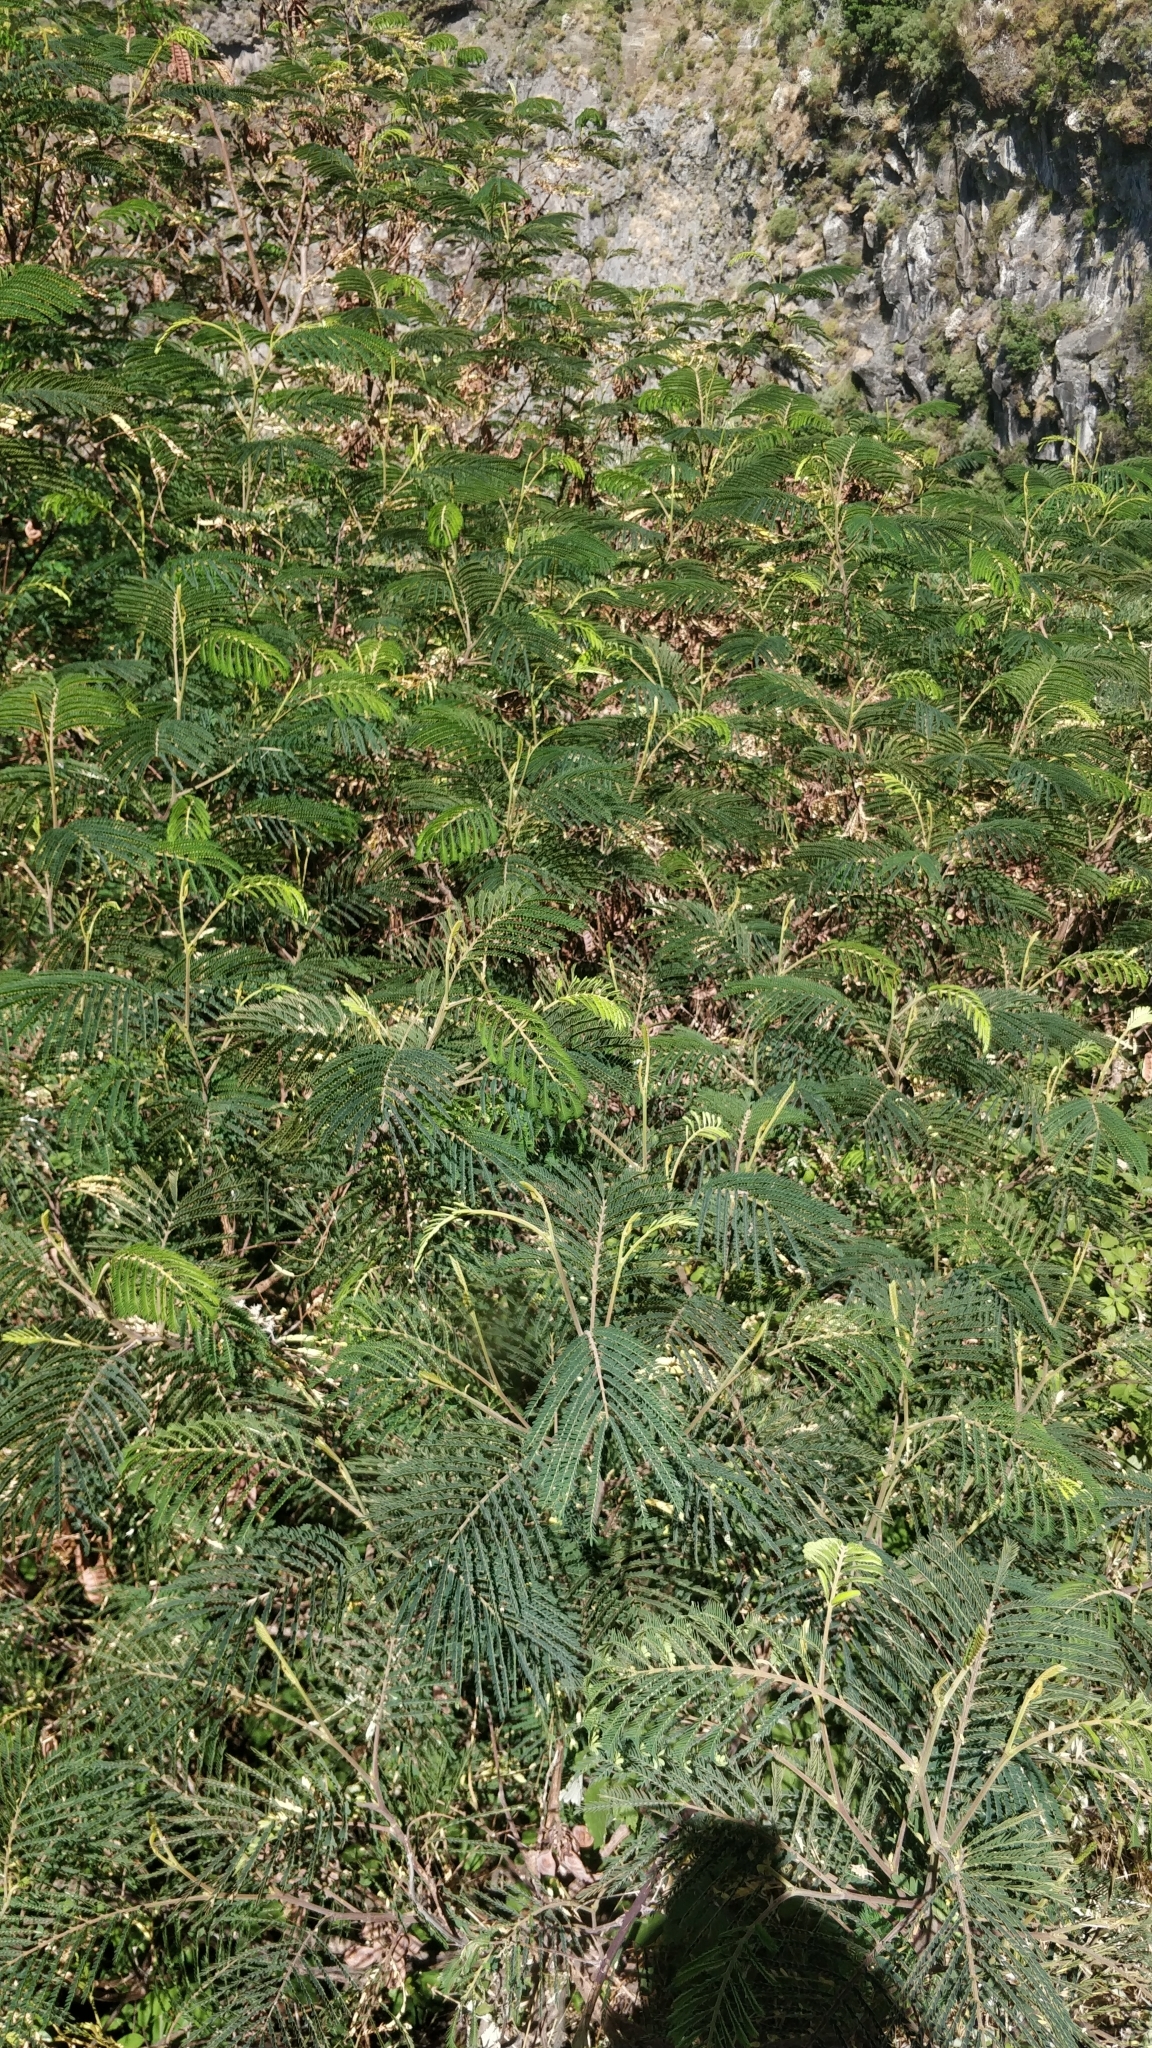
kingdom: Plantae
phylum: Tracheophyta
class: Magnoliopsida
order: Fabales
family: Fabaceae
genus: Paraserianthes
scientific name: Paraserianthes lophantha
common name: Plume albizia
